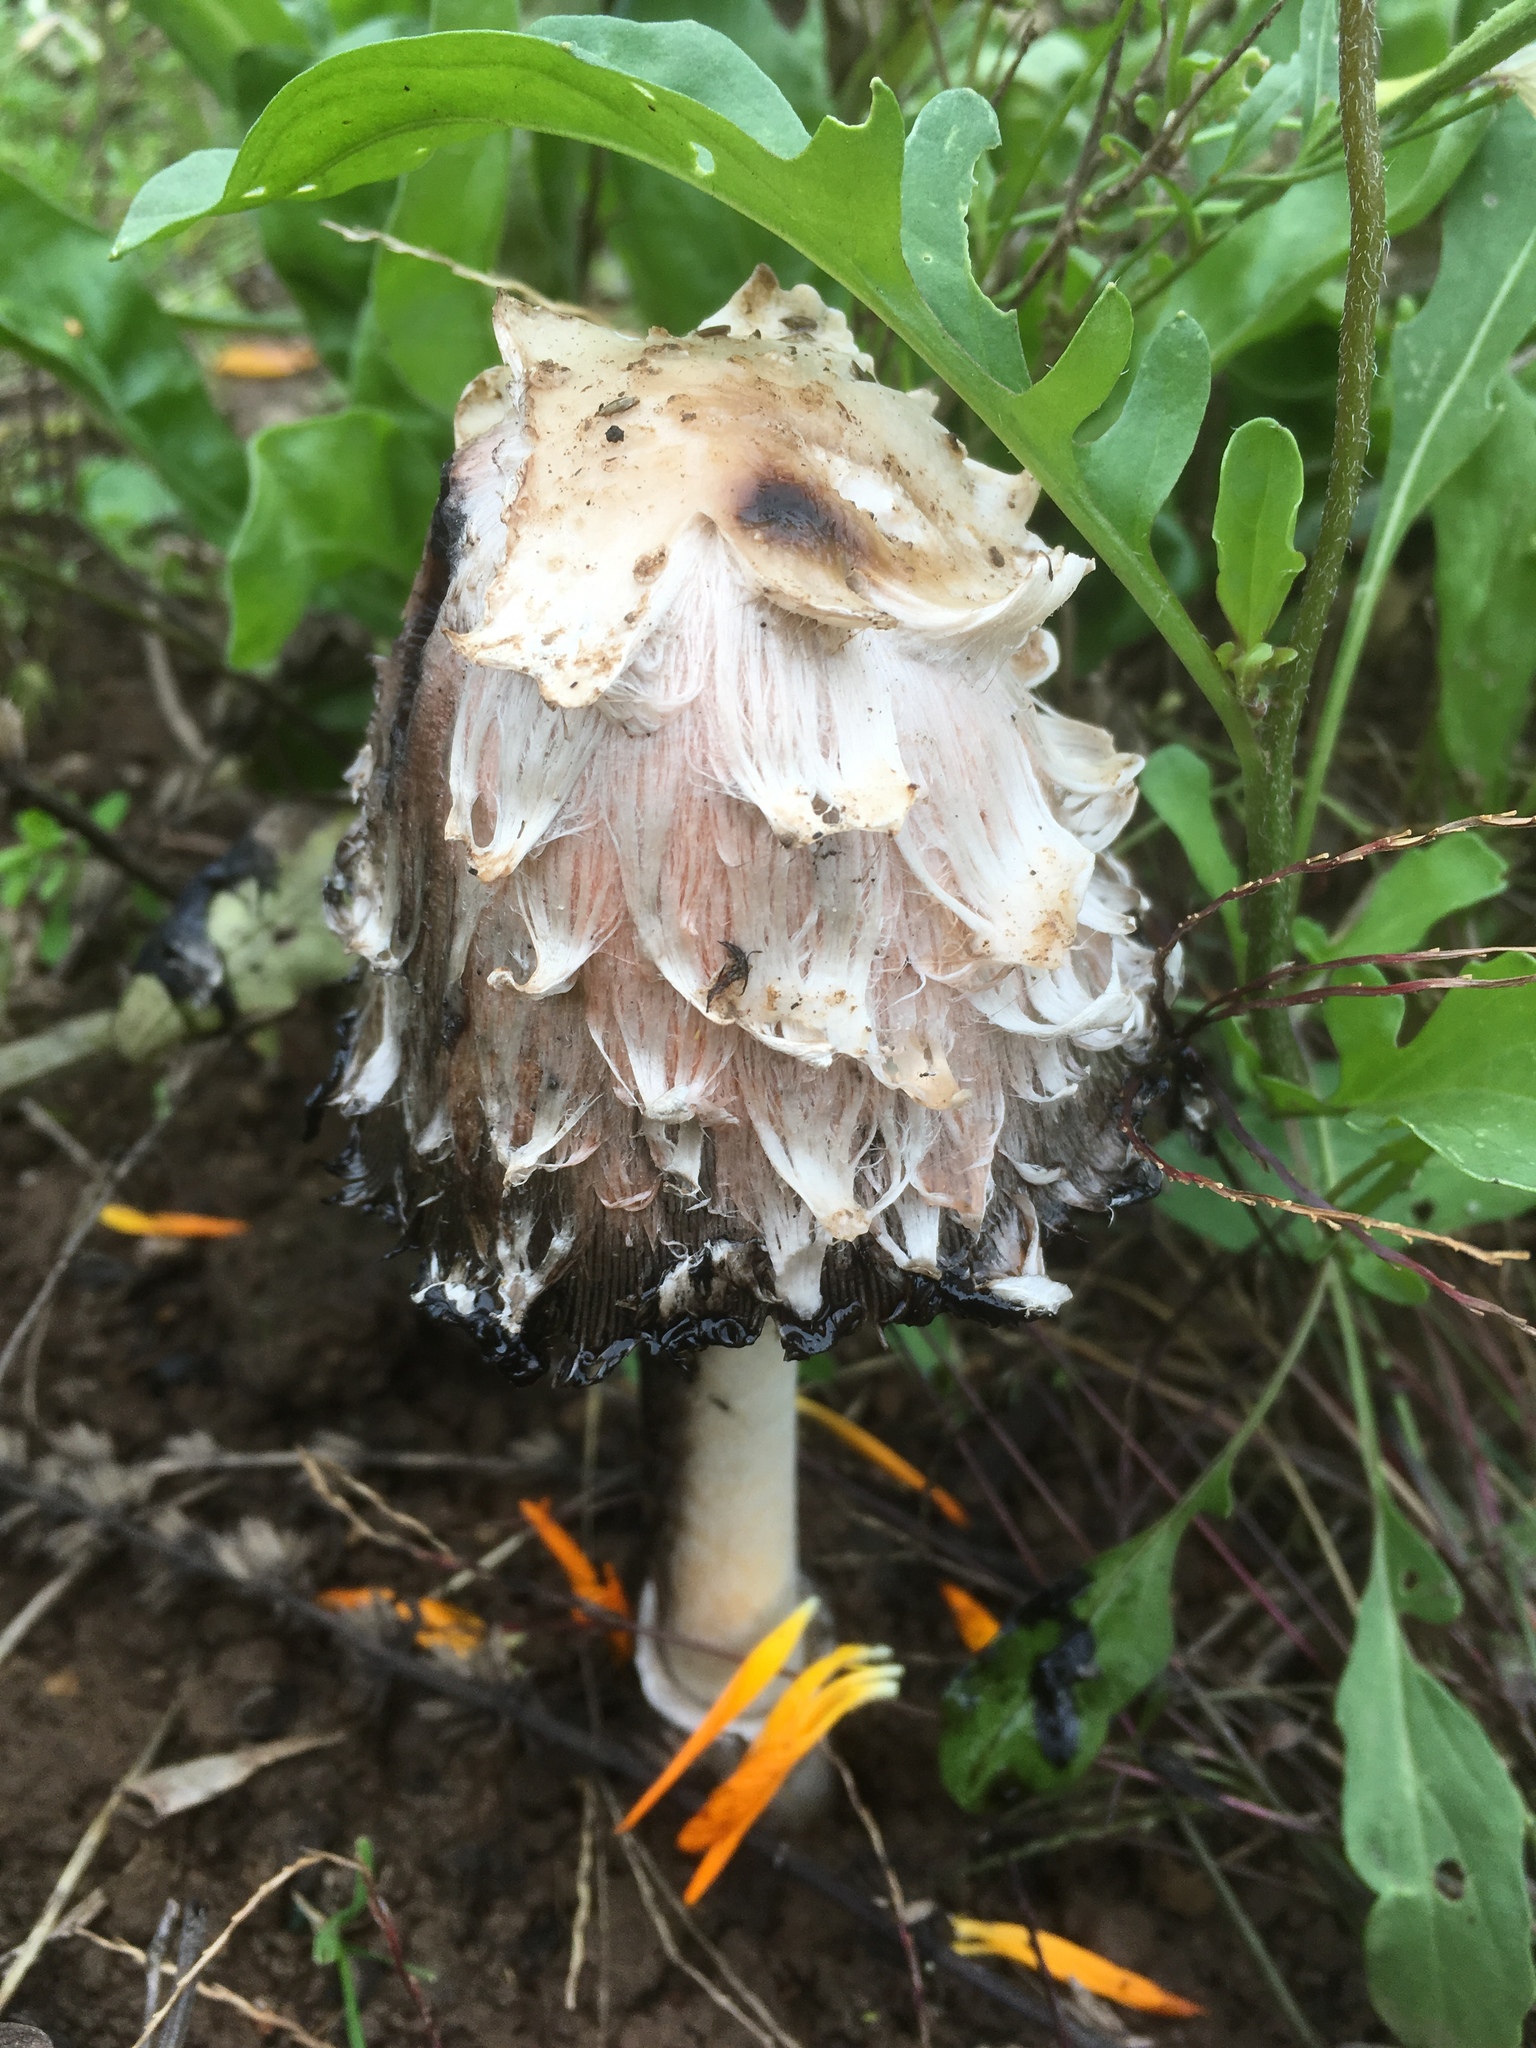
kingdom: Fungi
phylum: Basidiomycota
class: Agaricomycetes
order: Agaricales
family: Agaricaceae
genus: Coprinus
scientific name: Coprinus comatus
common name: Lawyer's wig
